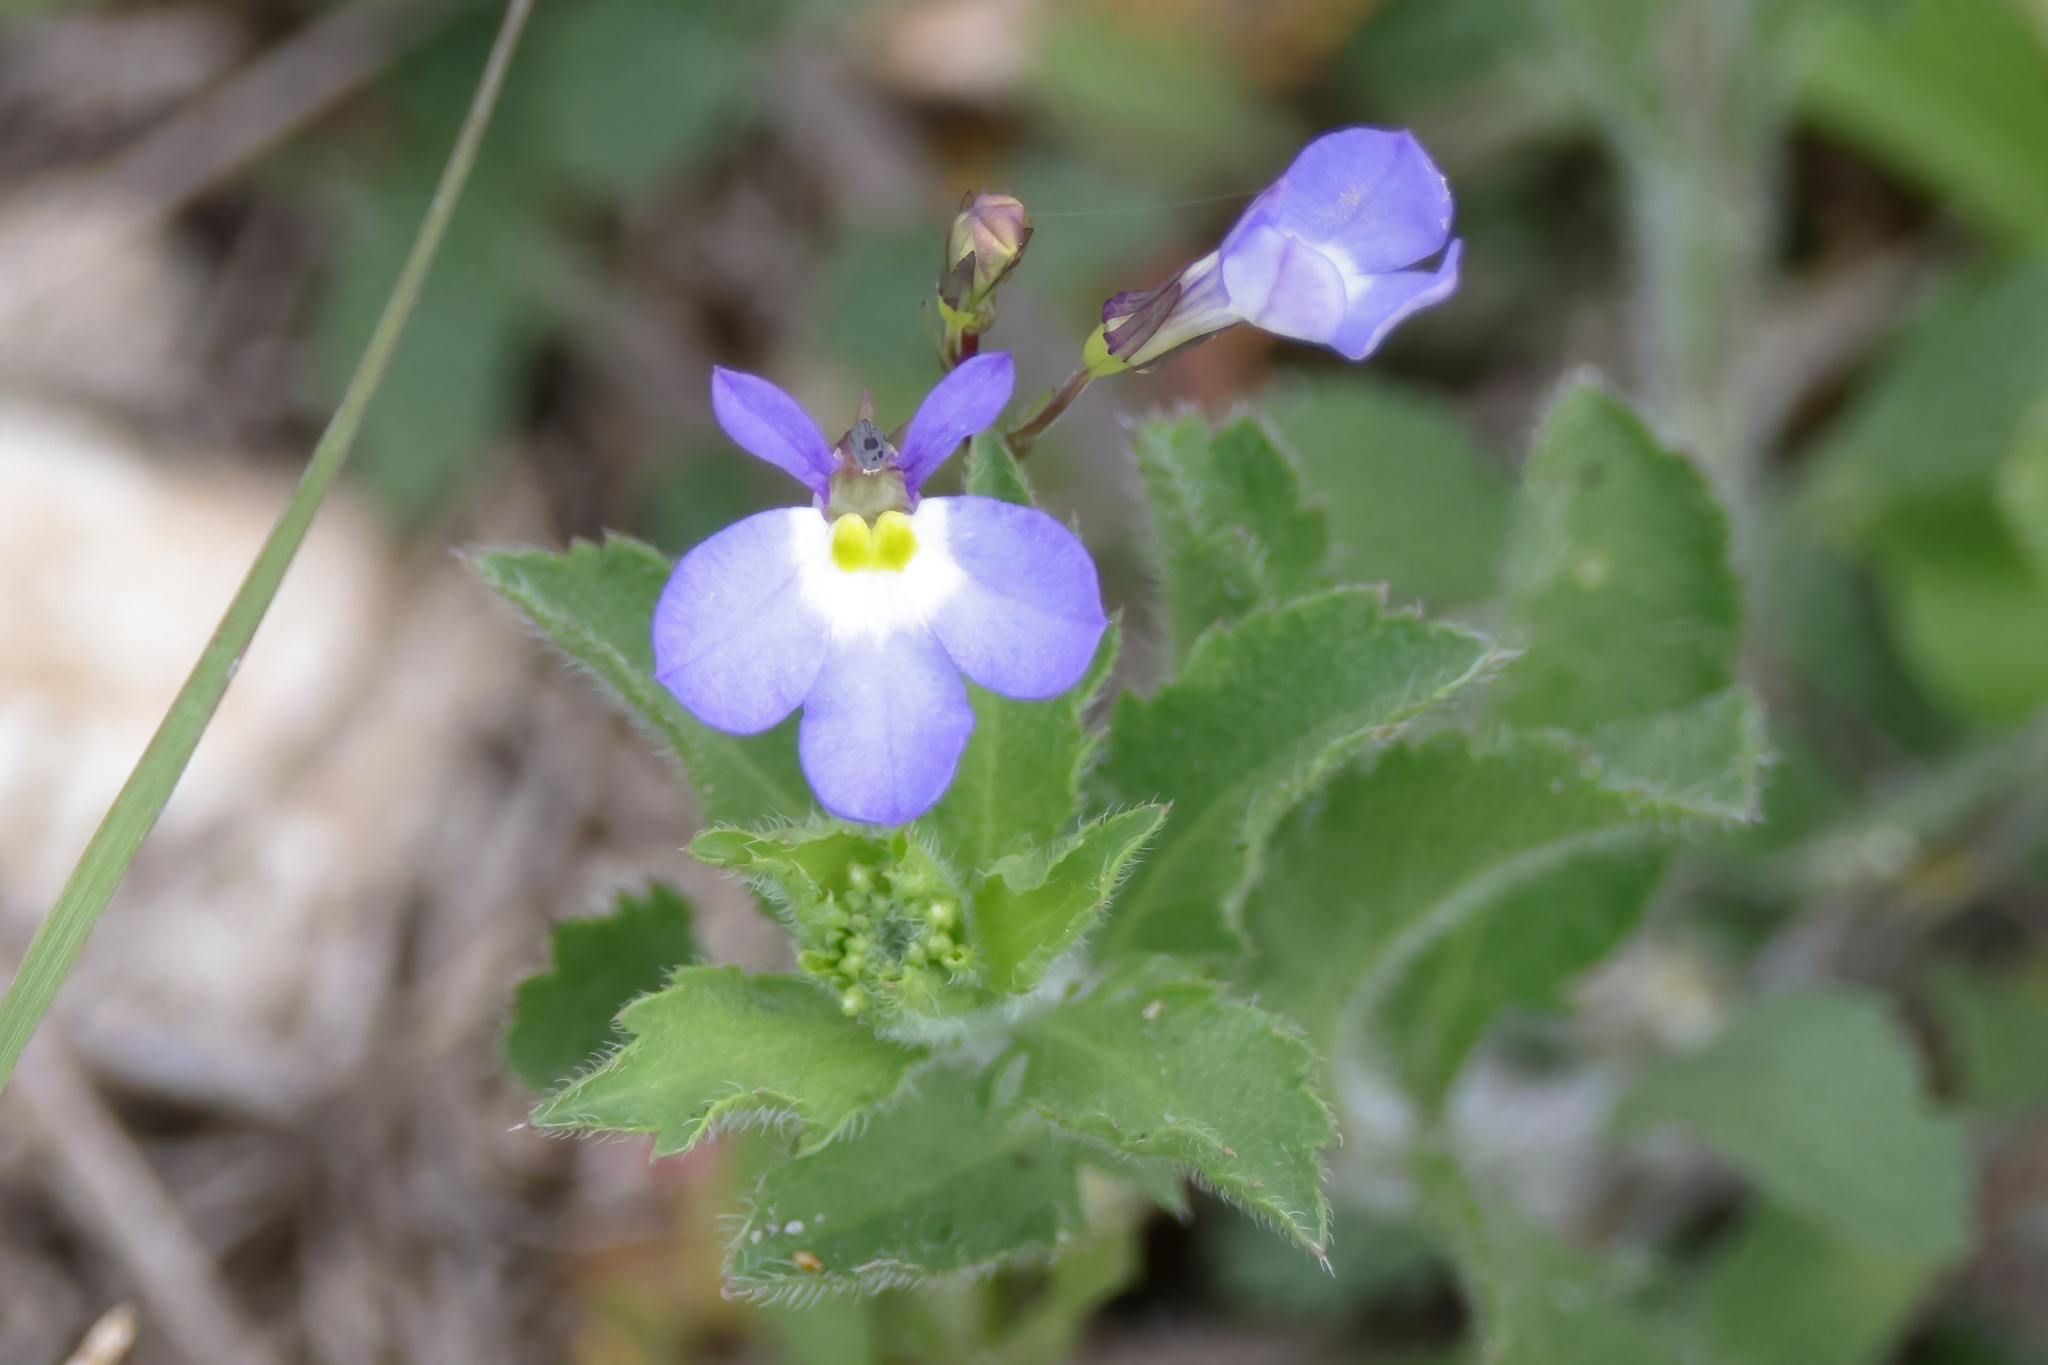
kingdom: Plantae
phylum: Tracheophyta
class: Magnoliopsida
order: Asterales
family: Campanulaceae
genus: Lobelia
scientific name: Lobelia berlandieri
